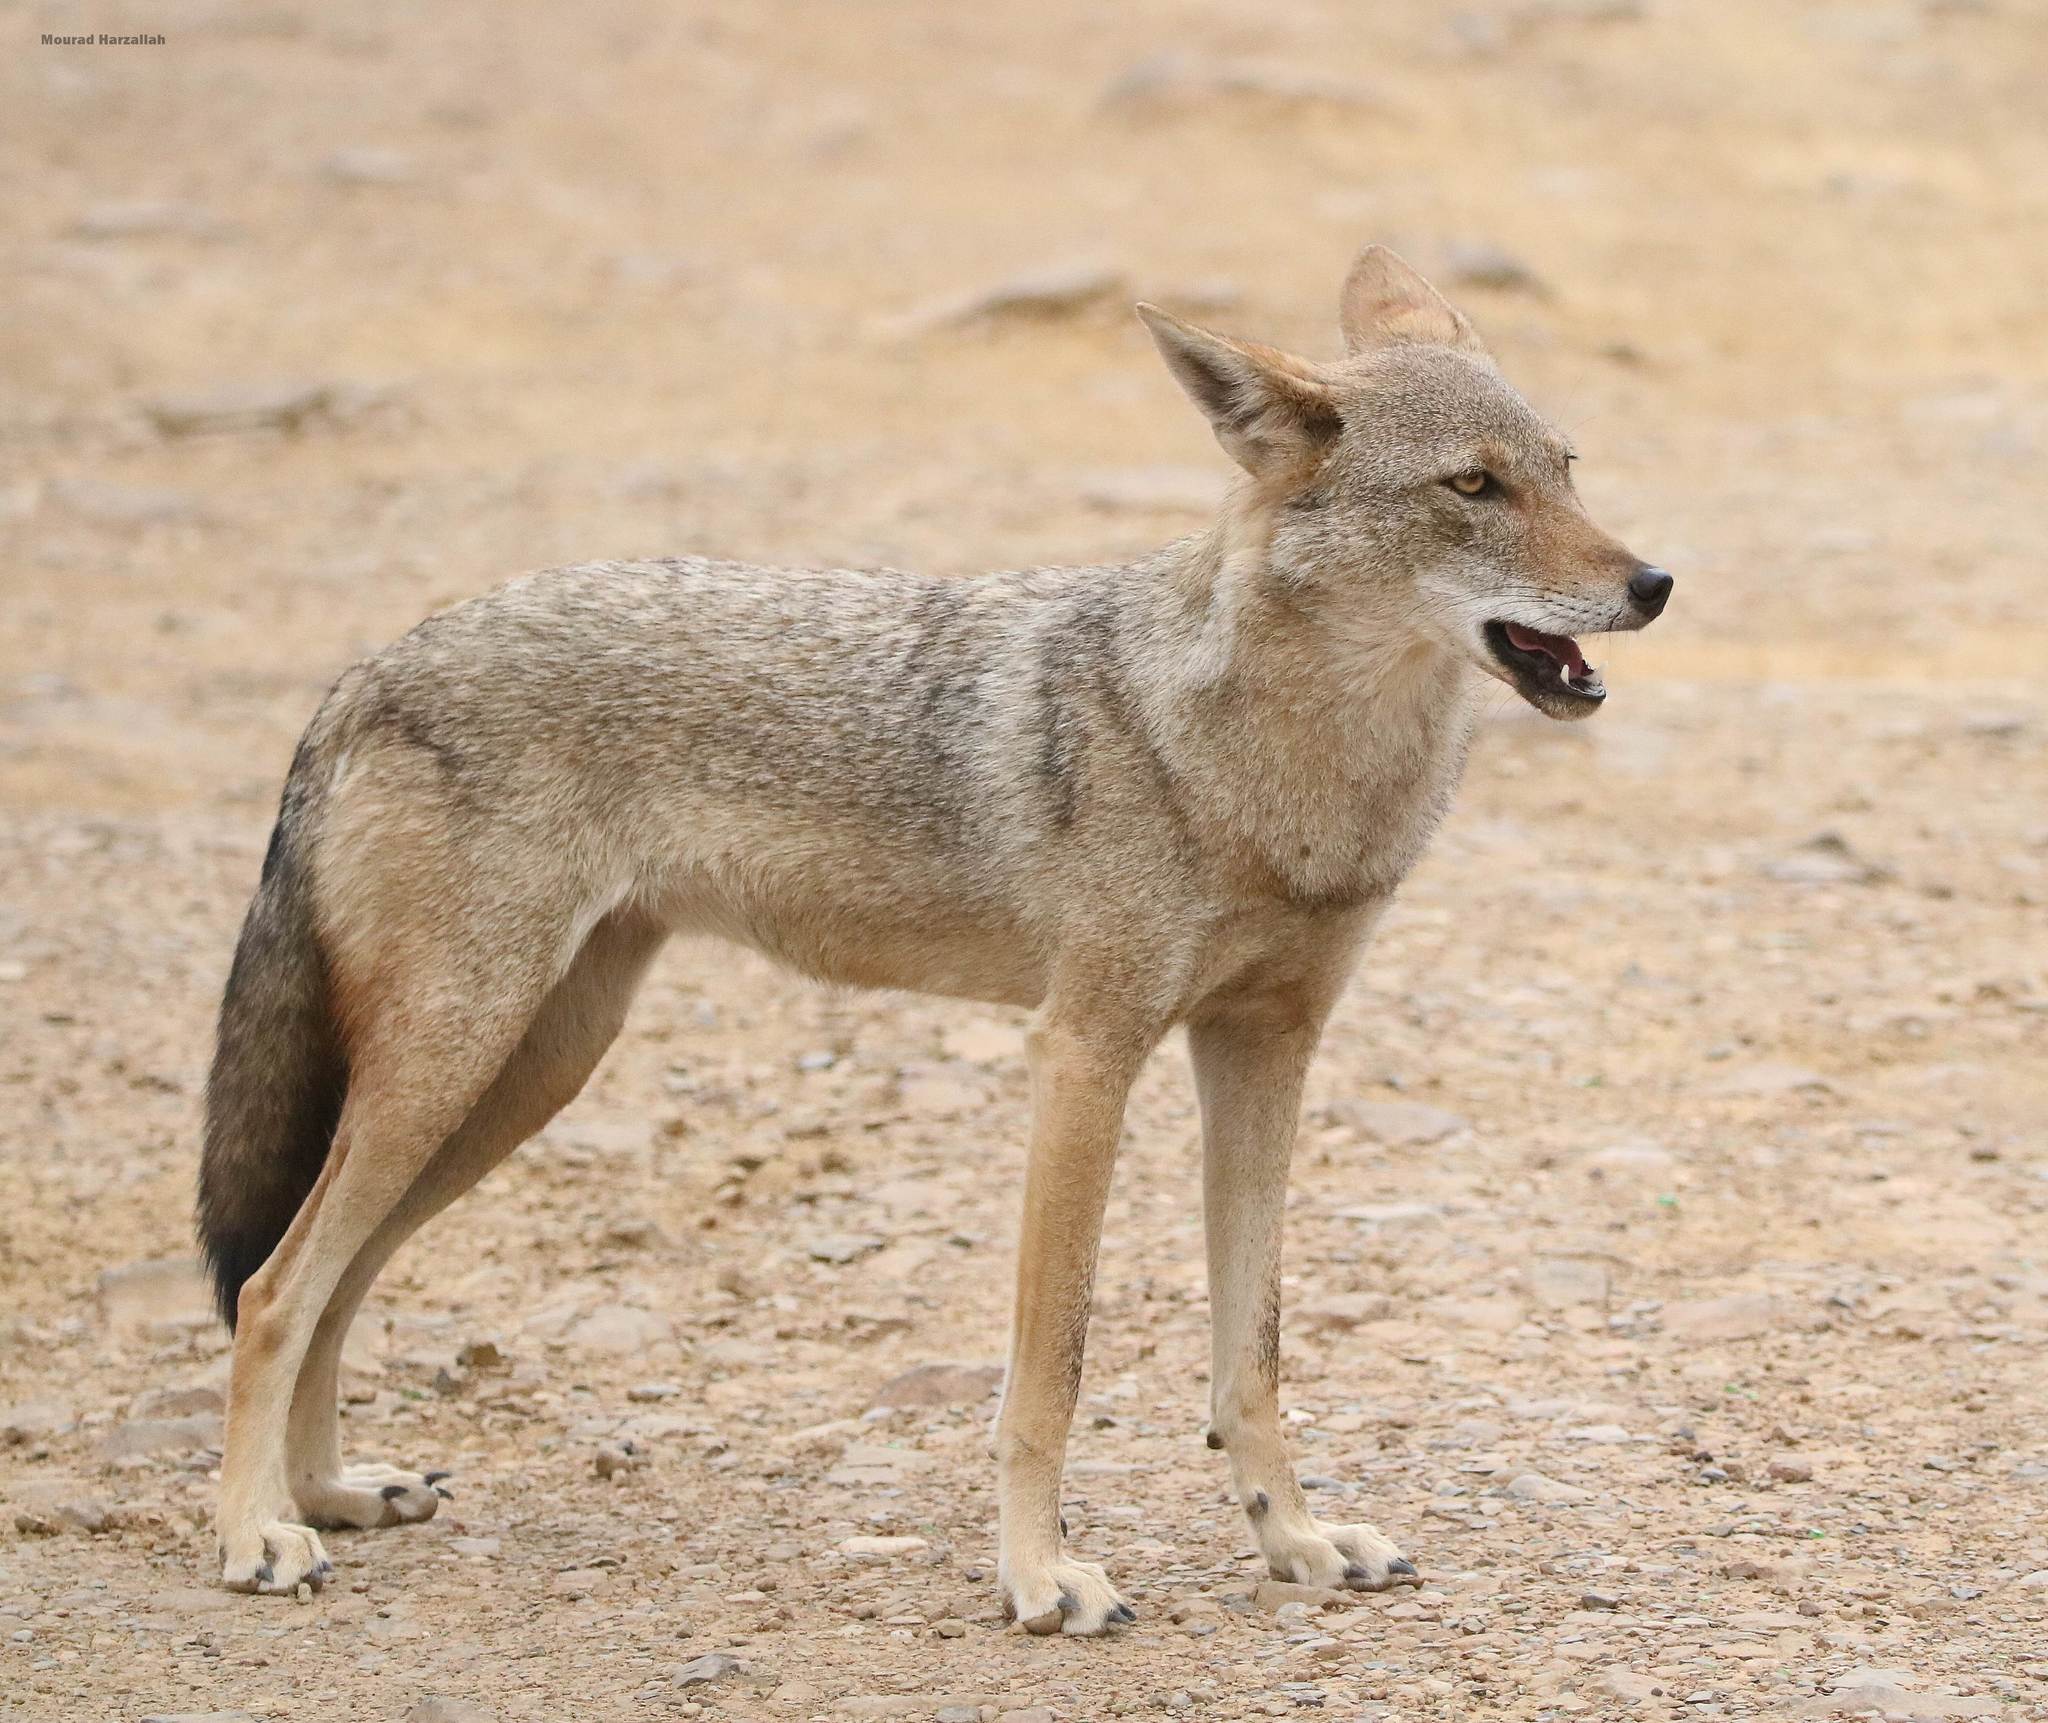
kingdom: Animalia
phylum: Chordata
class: Mammalia
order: Carnivora
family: Canidae
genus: Canis
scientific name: Canis lupaster
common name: African golden wolf
